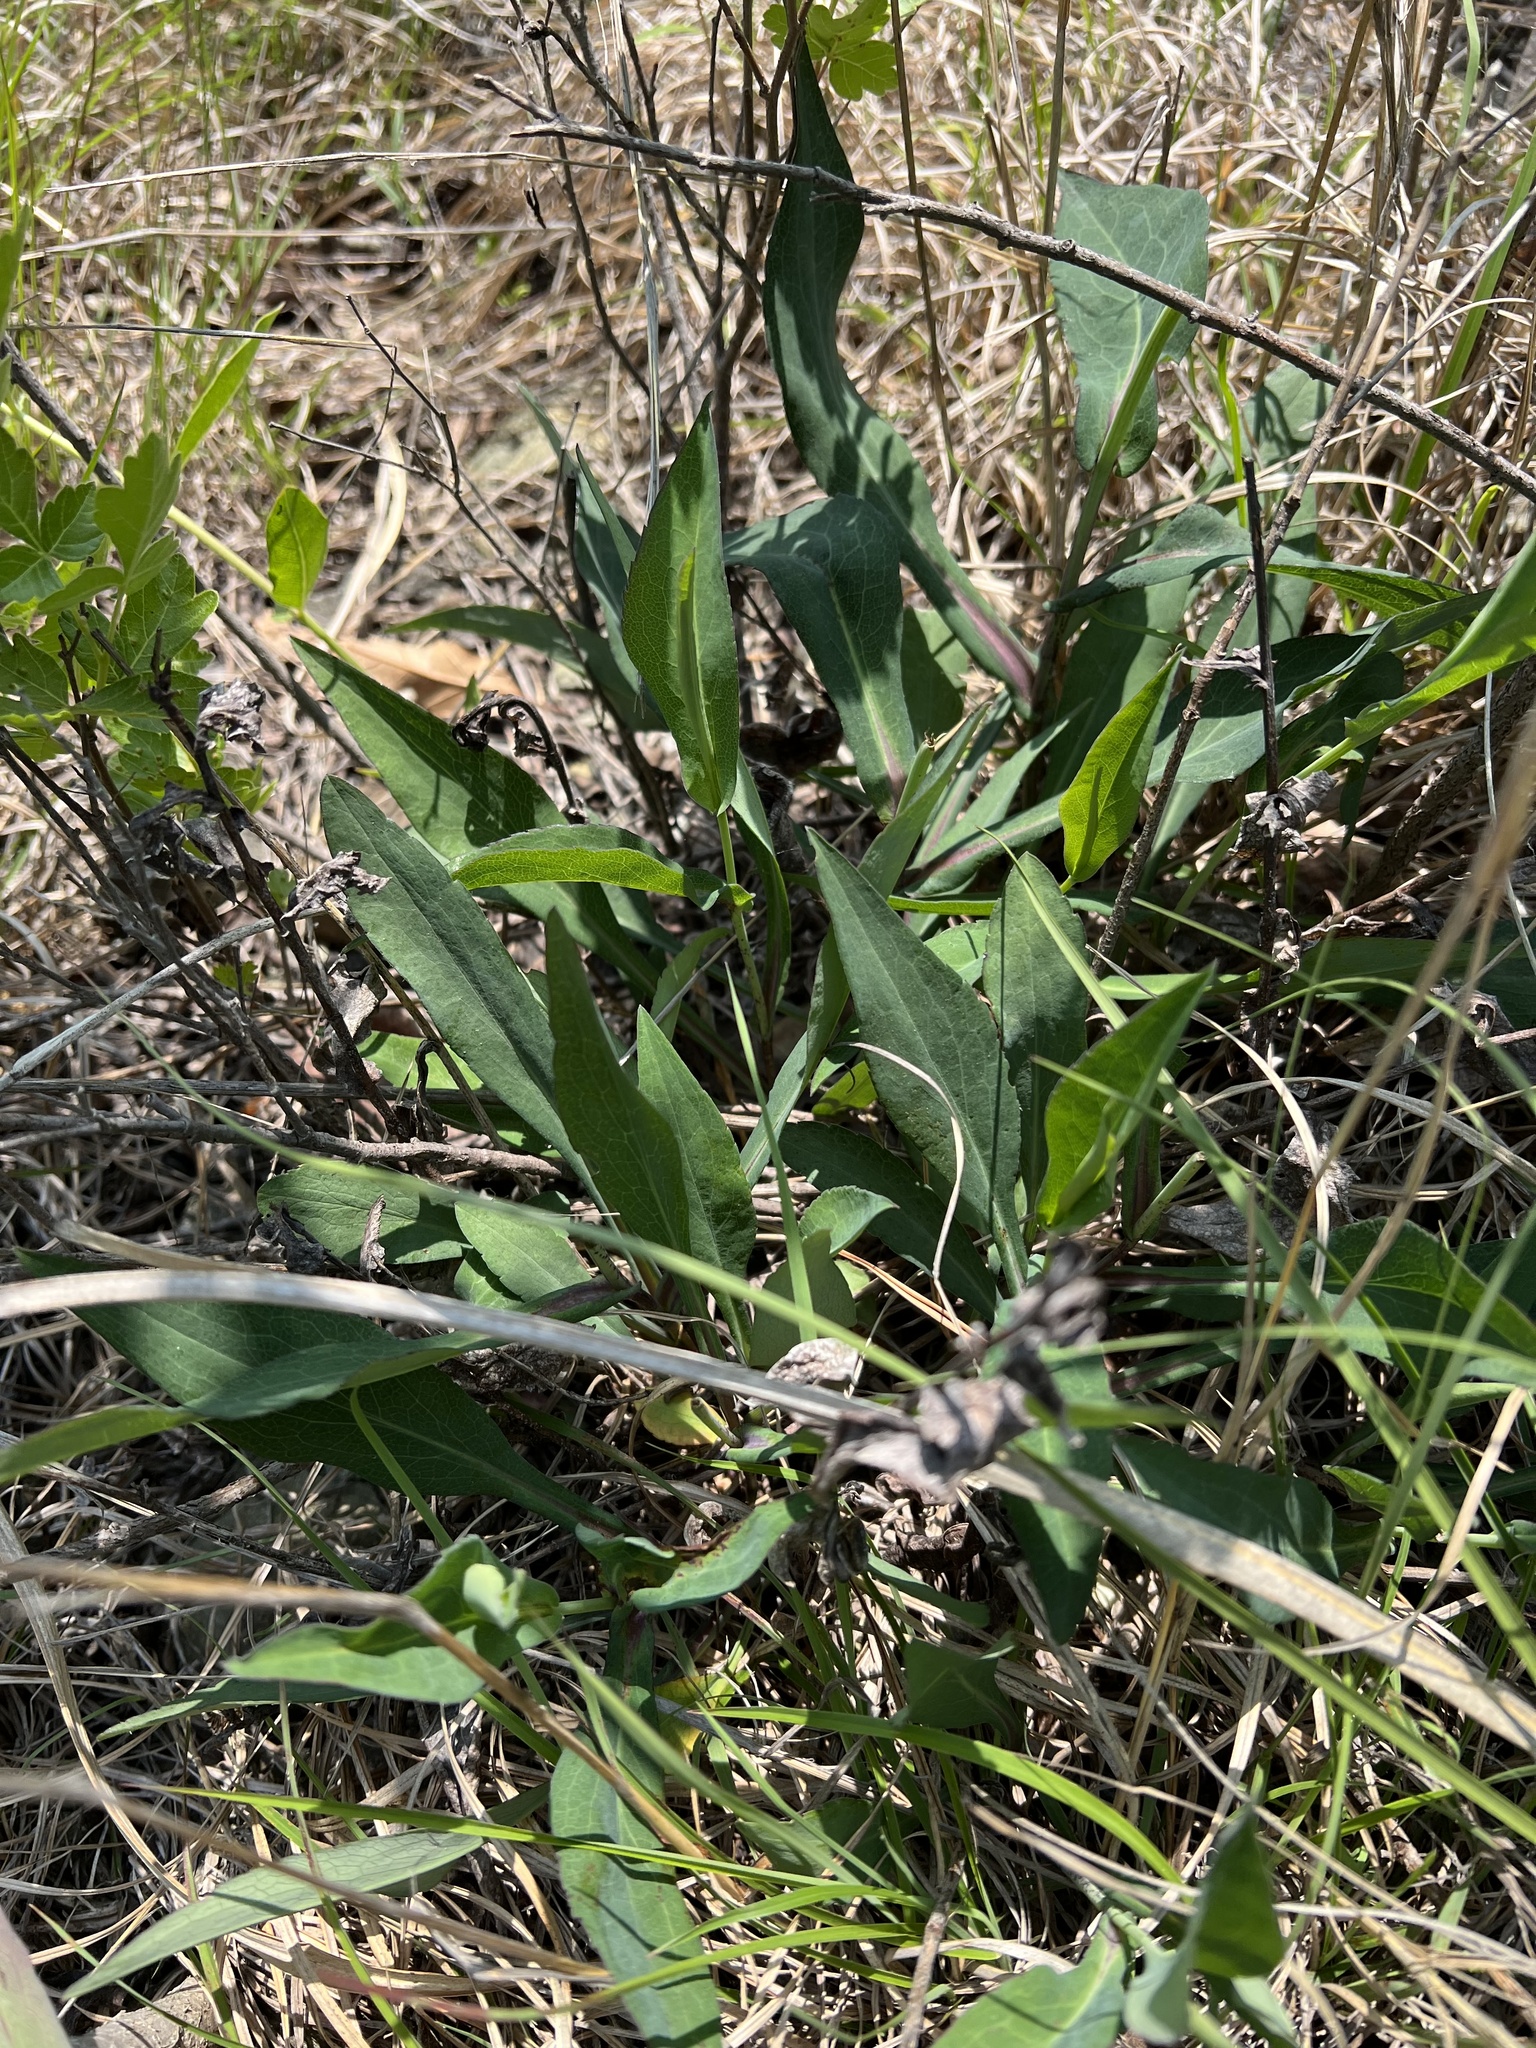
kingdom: Plantae
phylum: Tracheophyta
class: Magnoliopsida
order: Asterales
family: Asteraceae
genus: Symphyotrichum
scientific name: Symphyotrichum laeve
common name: Glaucous aster
